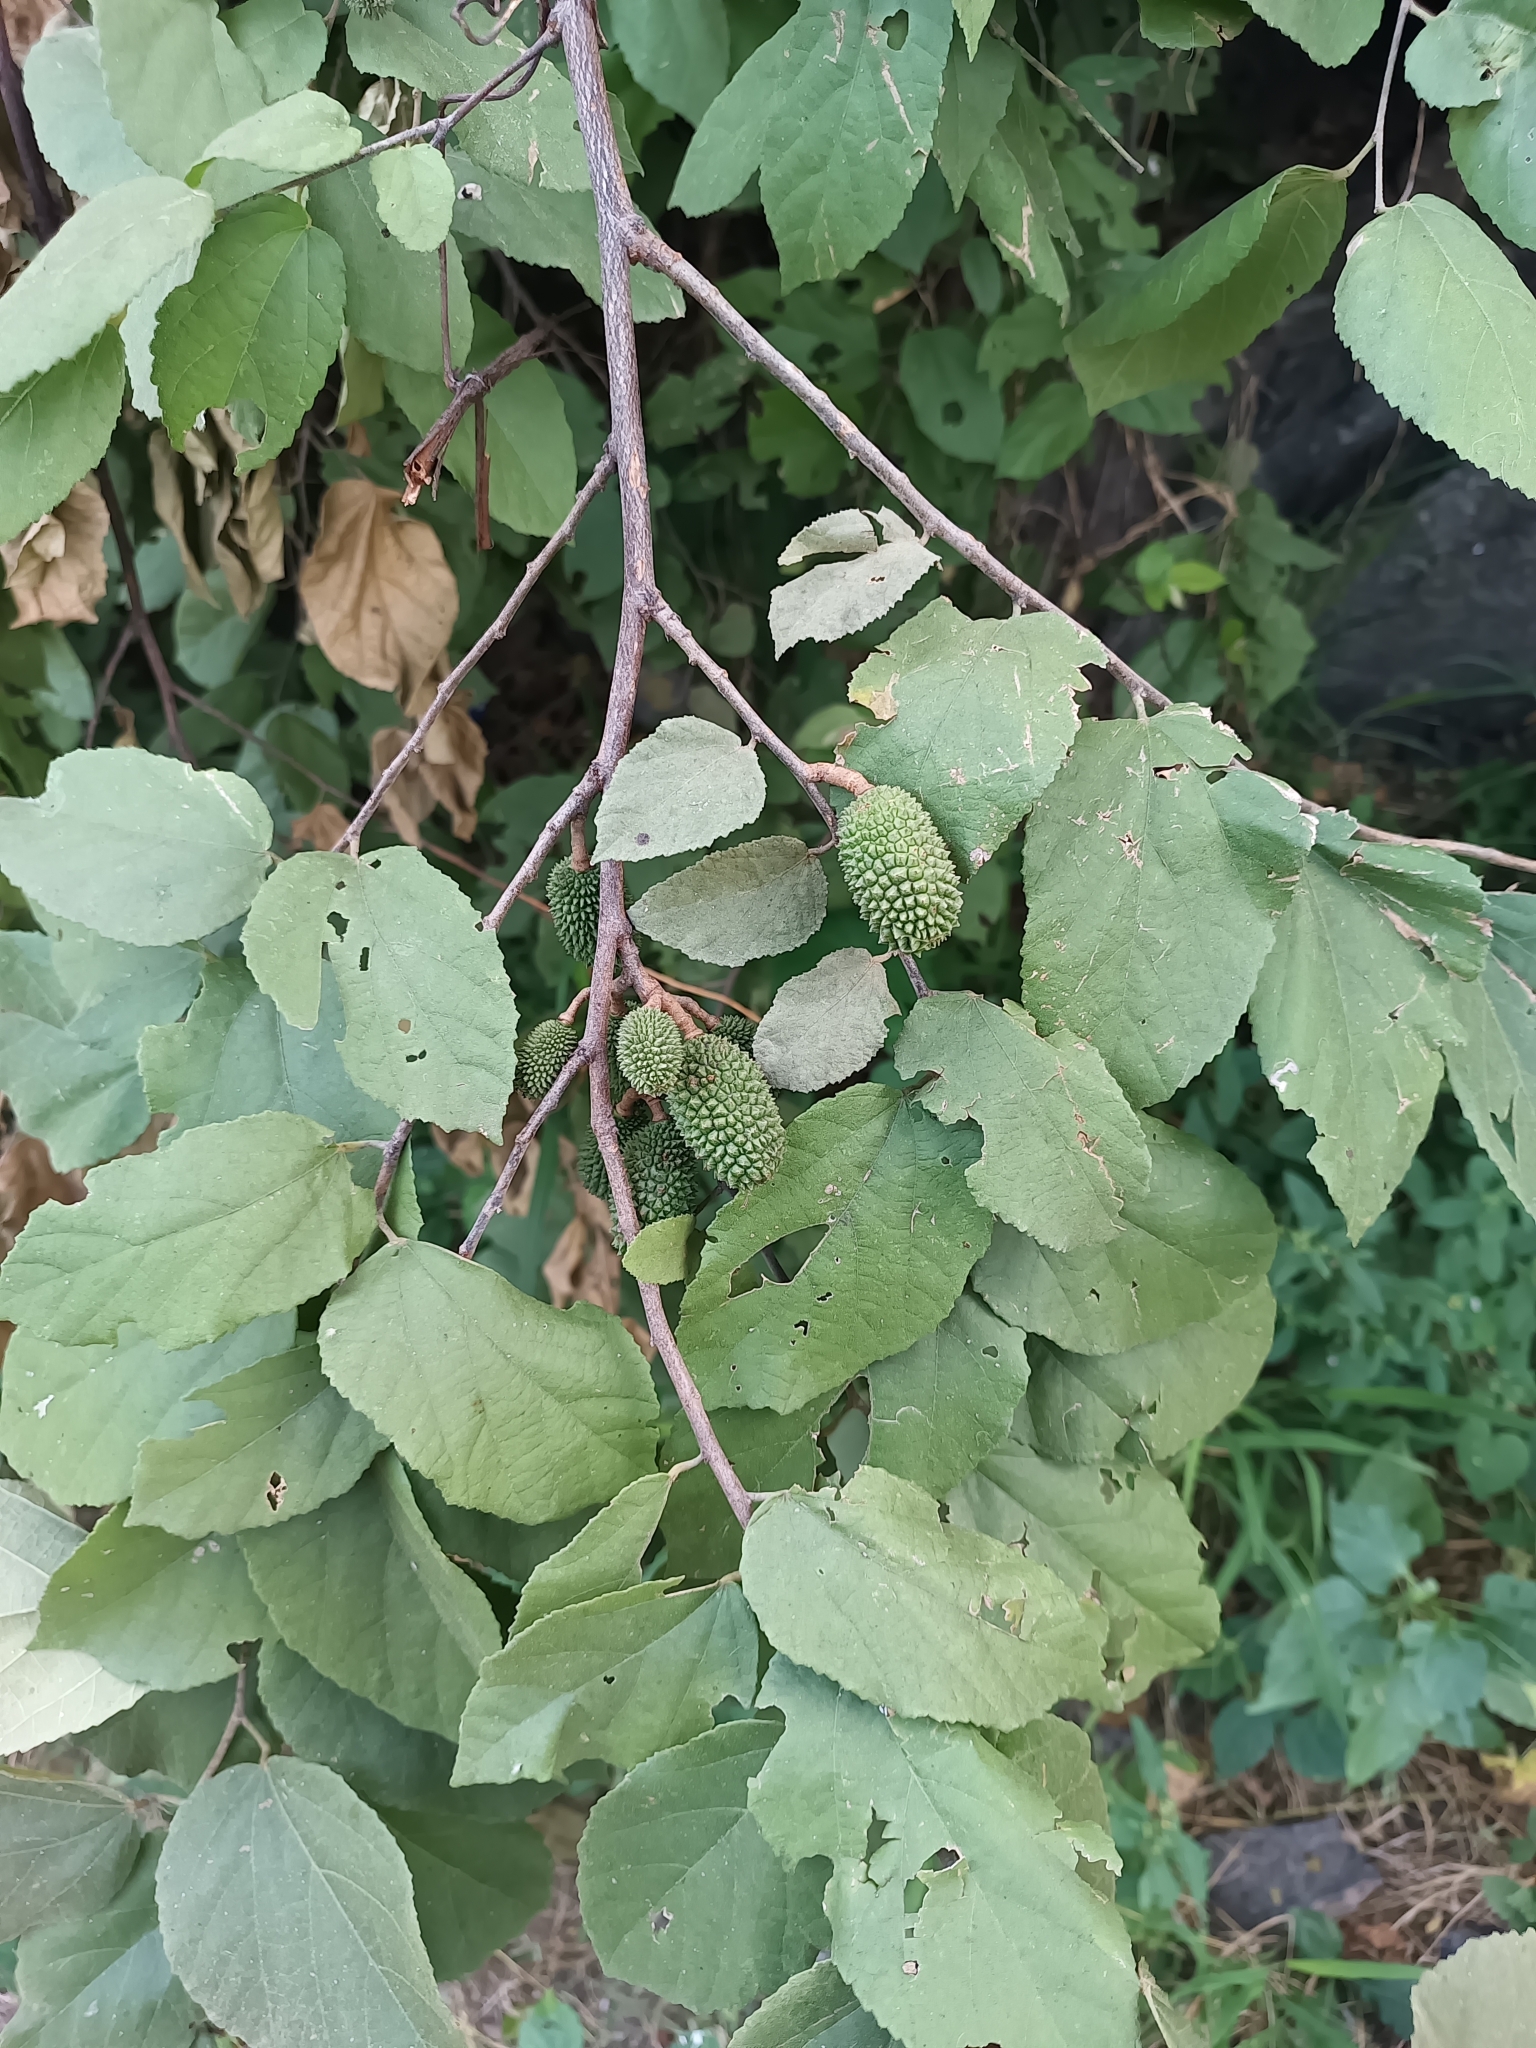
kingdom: Plantae
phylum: Tracheophyta
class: Magnoliopsida
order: Malvales
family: Malvaceae
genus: Guazuma
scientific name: Guazuma ulmifolia
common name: Bastard-cedar
